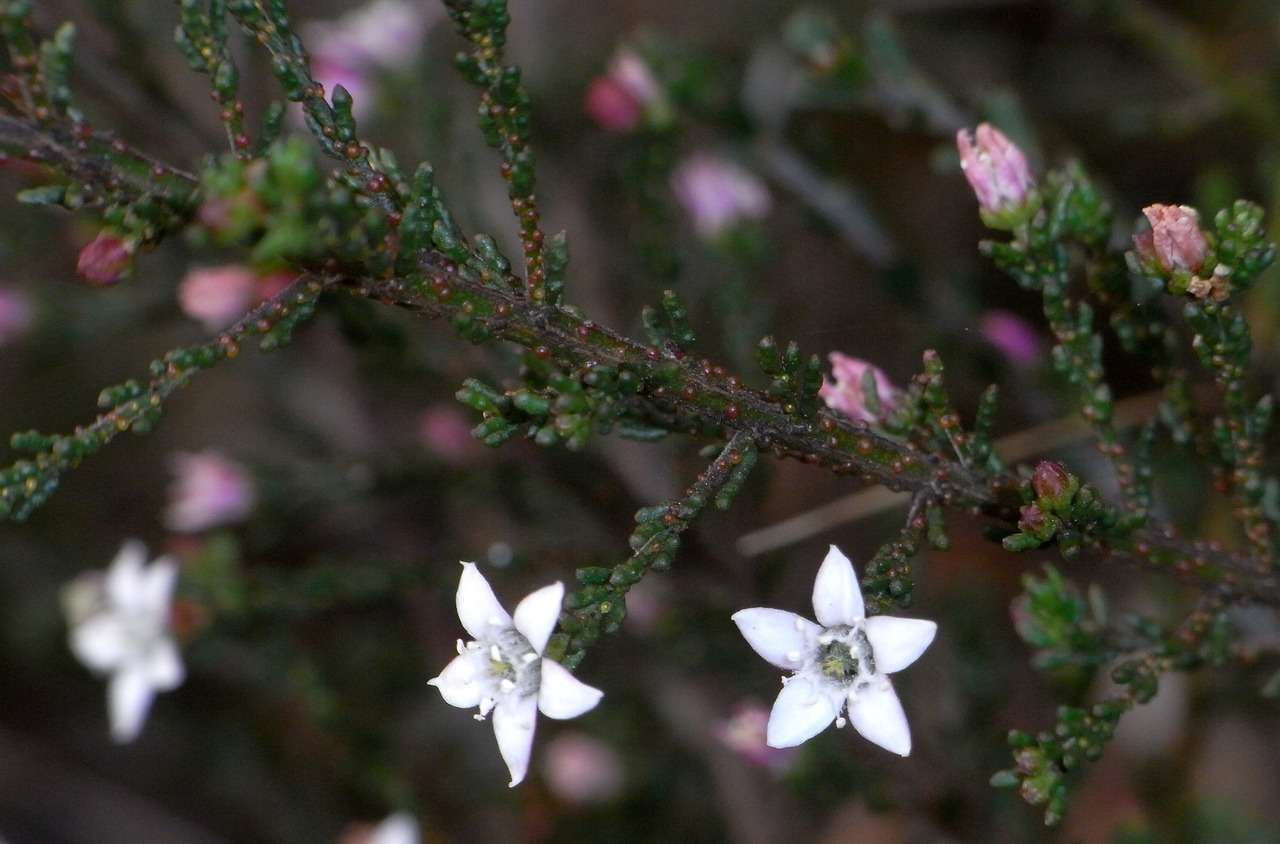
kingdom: Plantae
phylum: Tracheophyta
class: Magnoliopsida
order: Sapindales
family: Rutaceae
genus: Philotheca
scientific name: Philotheca angustifolia
